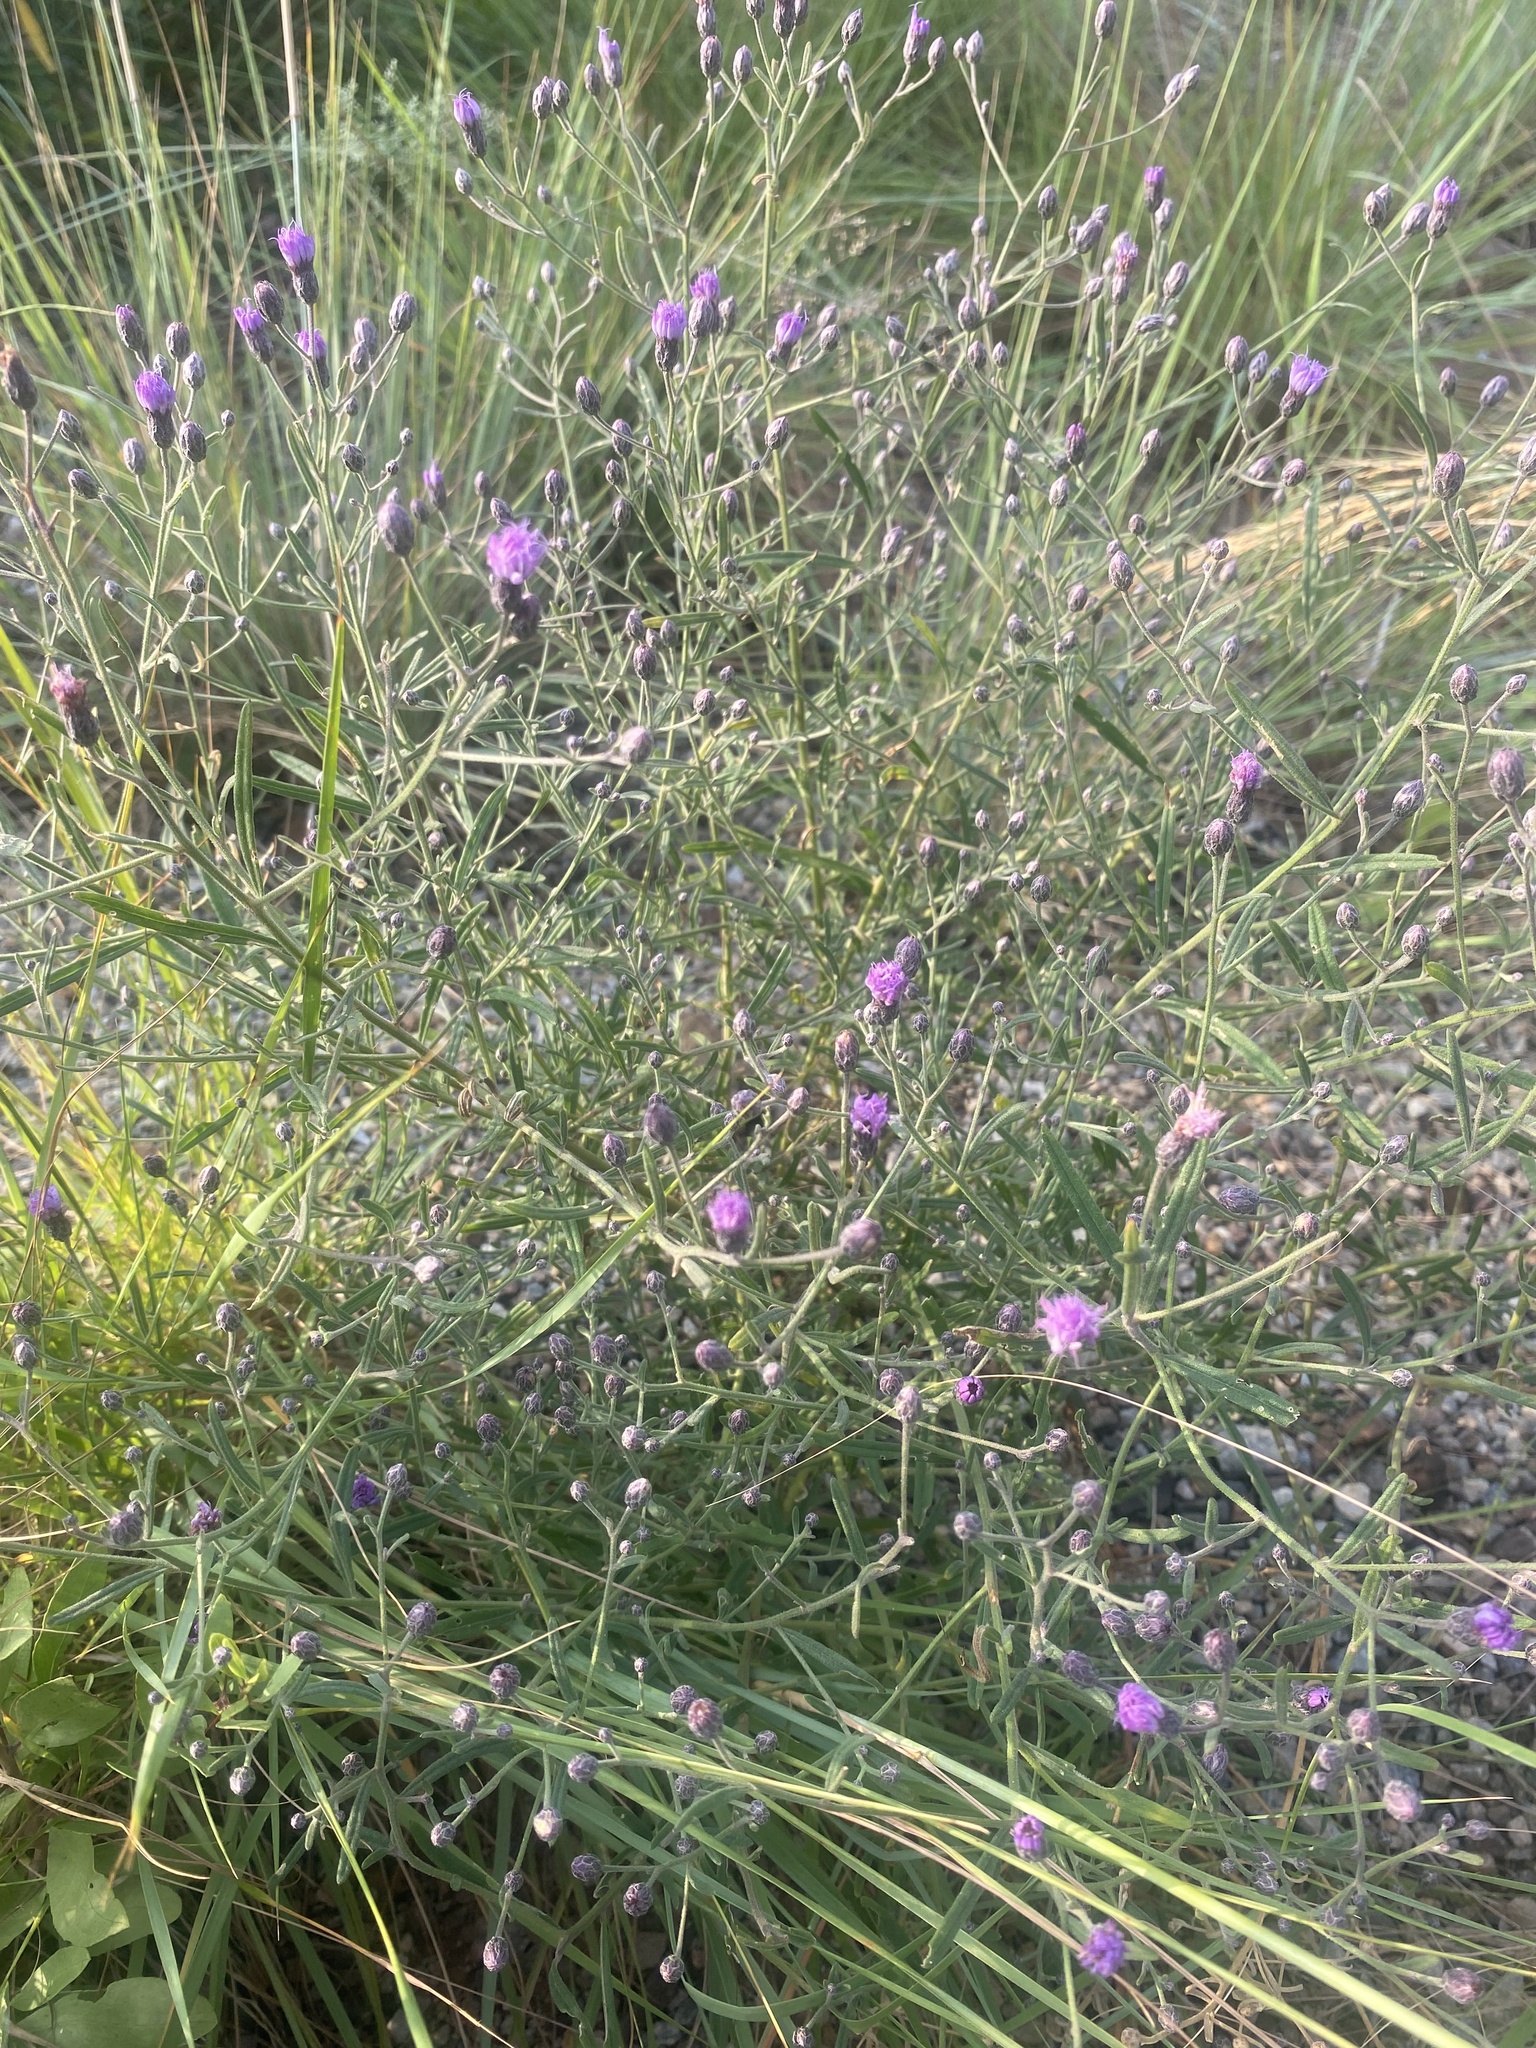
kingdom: Plantae
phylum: Tracheophyta
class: Magnoliopsida
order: Asterales
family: Asteraceae
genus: Crystallopollen
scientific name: Crystallopollen angustifolium
